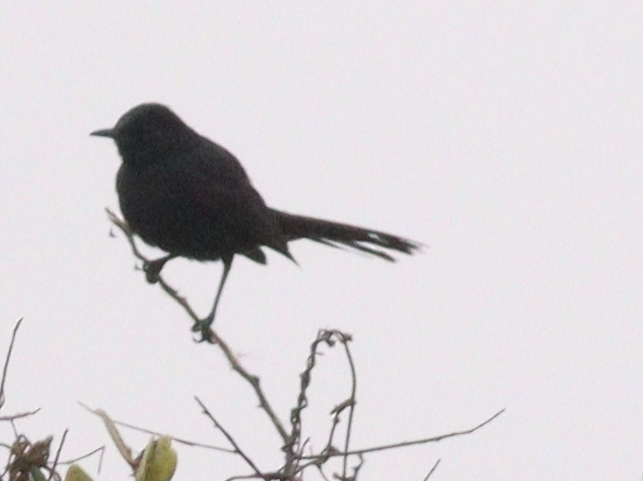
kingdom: Animalia
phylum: Chordata
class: Aves
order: Passeriformes
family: Muscicapidae
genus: Cercotrichas
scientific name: Cercotrichas podobe
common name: Black scrub robin
